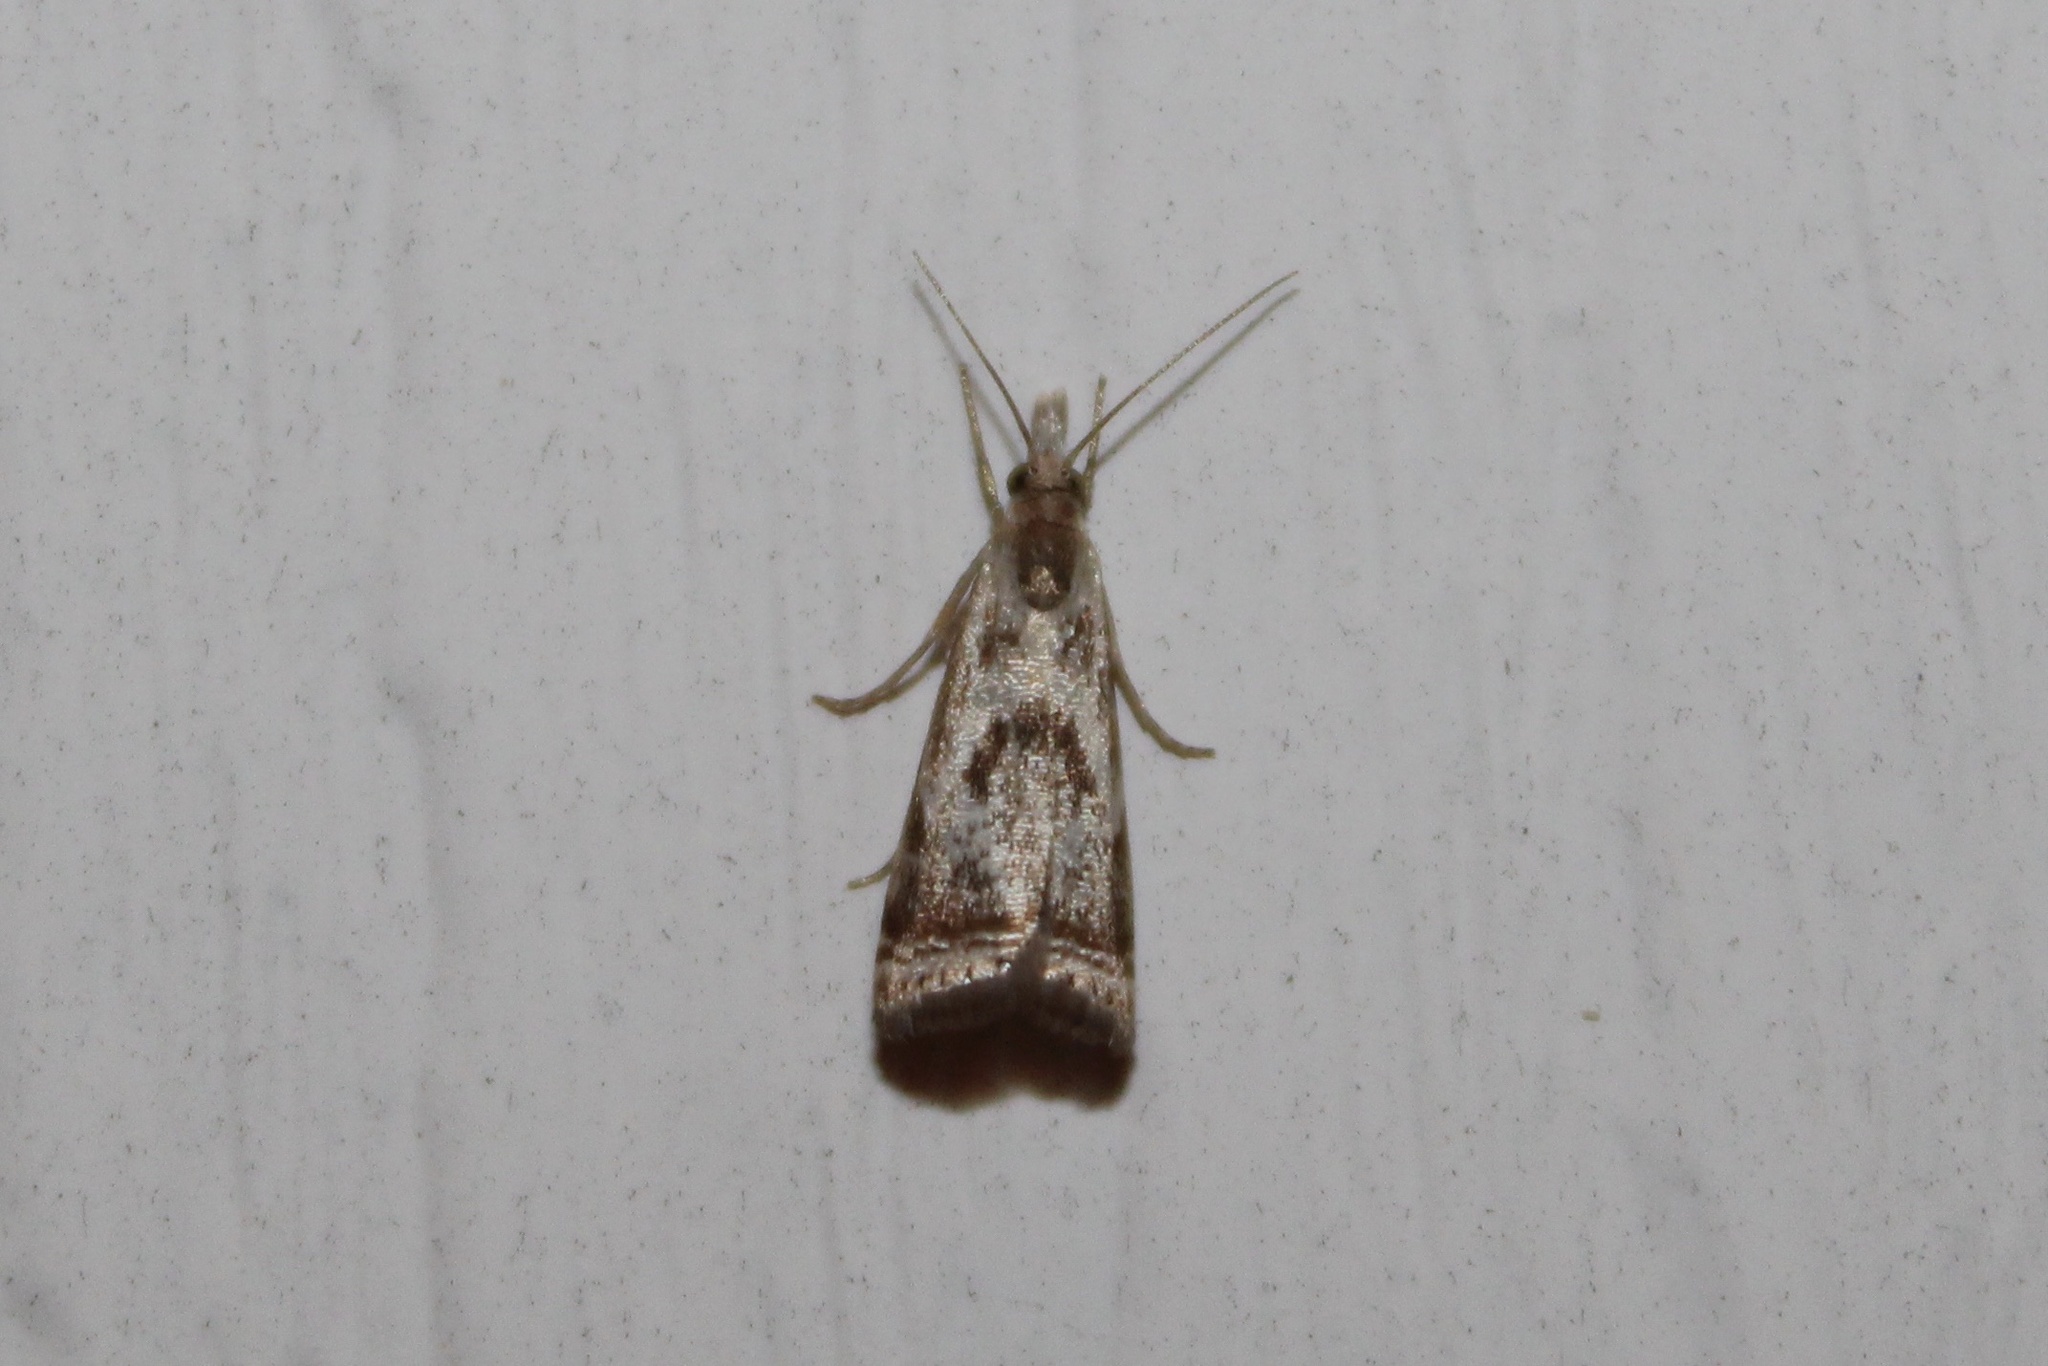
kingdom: Animalia
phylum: Arthropoda
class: Insecta
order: Lepidoptera
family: Crambidae
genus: Microcrambus
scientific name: Microcrambus elegans
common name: Elegant grass-veneer
